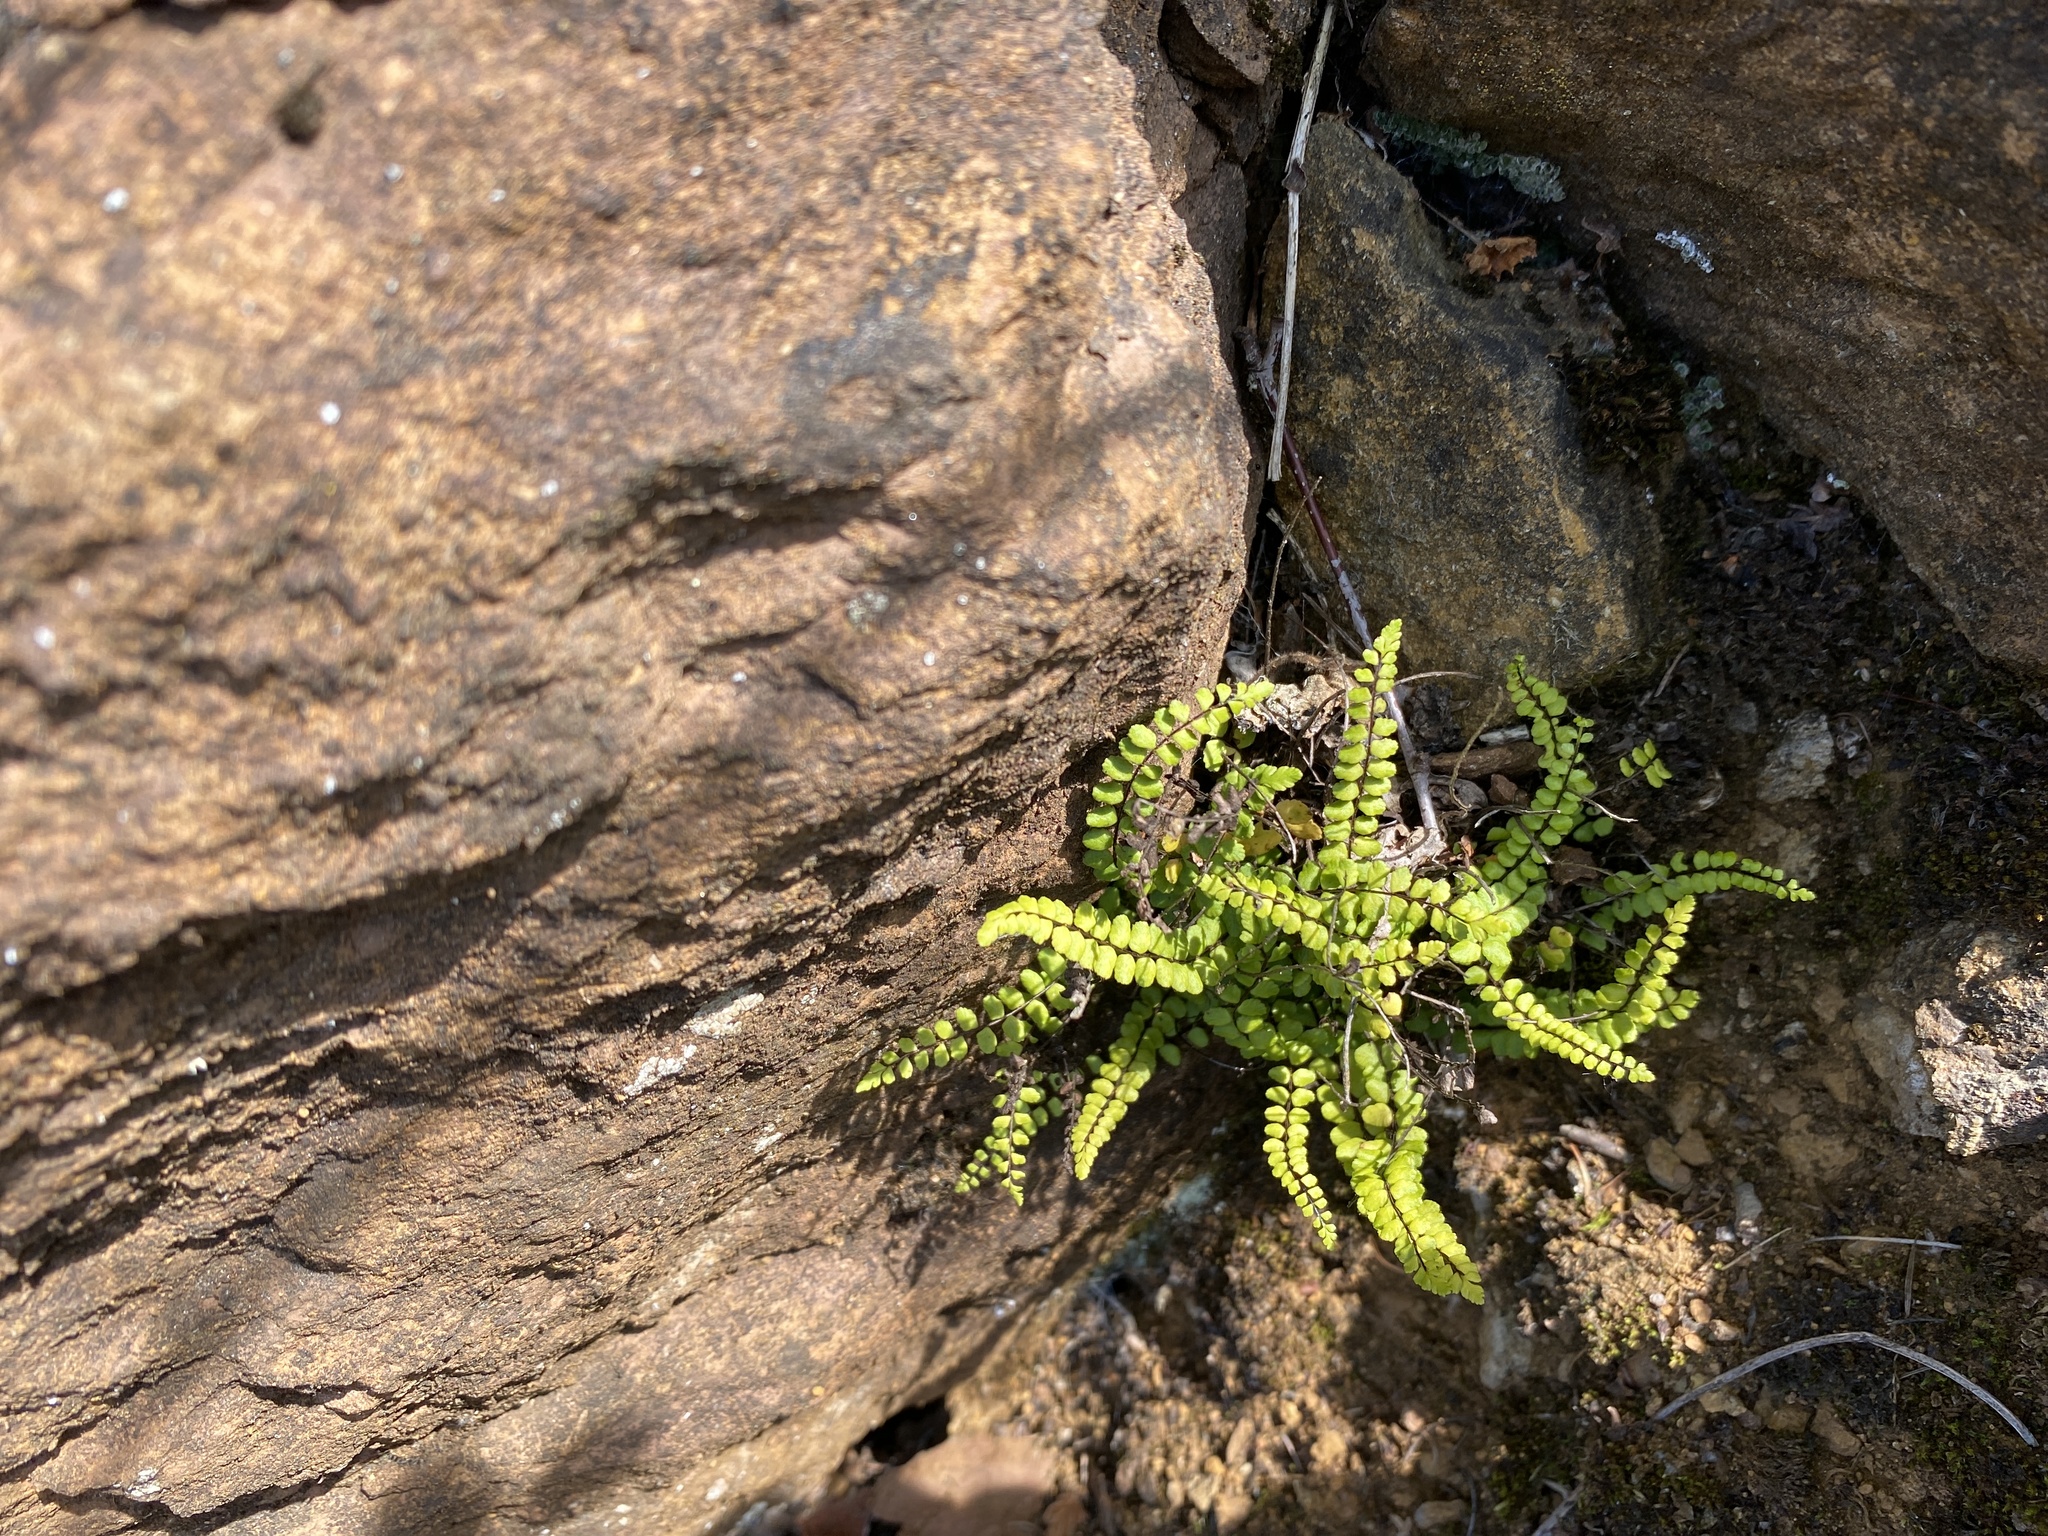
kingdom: Plantae
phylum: Tracheophyta
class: Polypodiopsida
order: Polypodiales
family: Aspleniaceae
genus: Asplenium
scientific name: Asplenium trichomanes
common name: Maidenhair spleenwort
